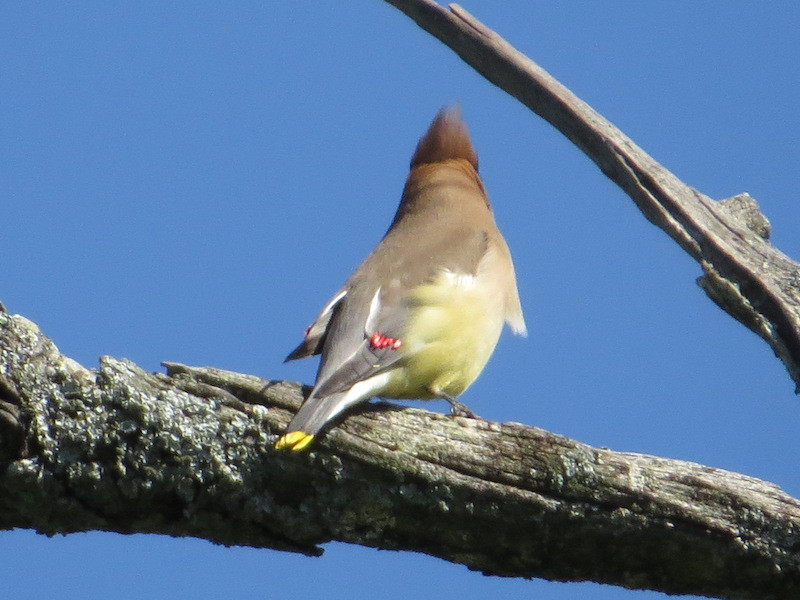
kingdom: Animalia
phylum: Chordata
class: Aves
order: Passeriformes
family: Bombycillidae
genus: Bombycilla
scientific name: Bombycilla cedrorum
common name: Cedar waxwing
